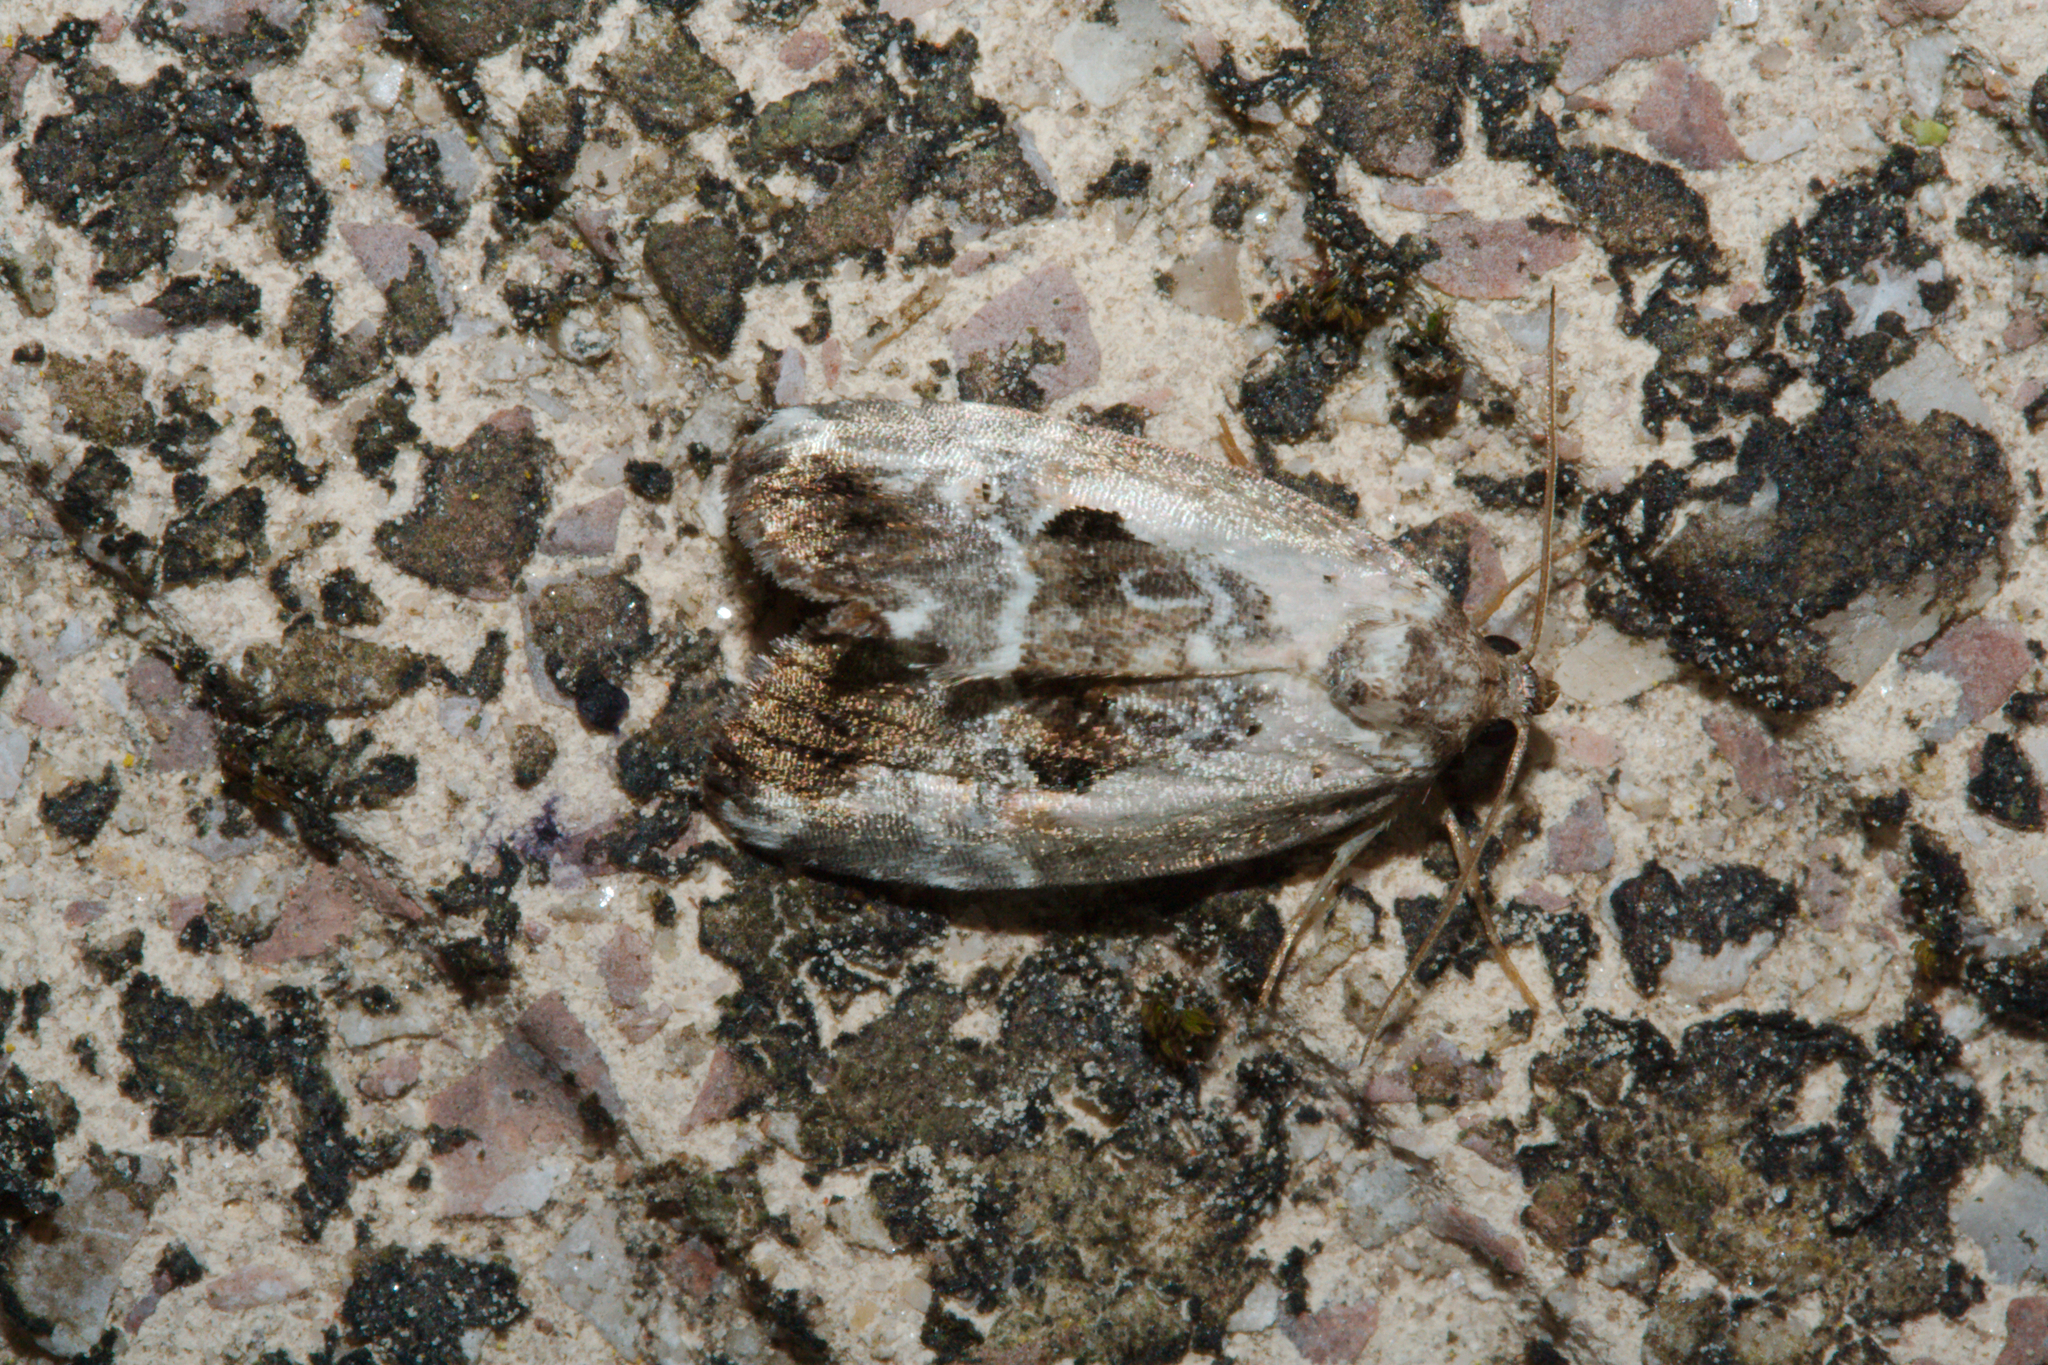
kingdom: Animalia
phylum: Arthropoda
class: Insecta
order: Lepidoptera
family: Noctuidae
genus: Elaphria
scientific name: Elaphria venustula
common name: Rosy marbled
